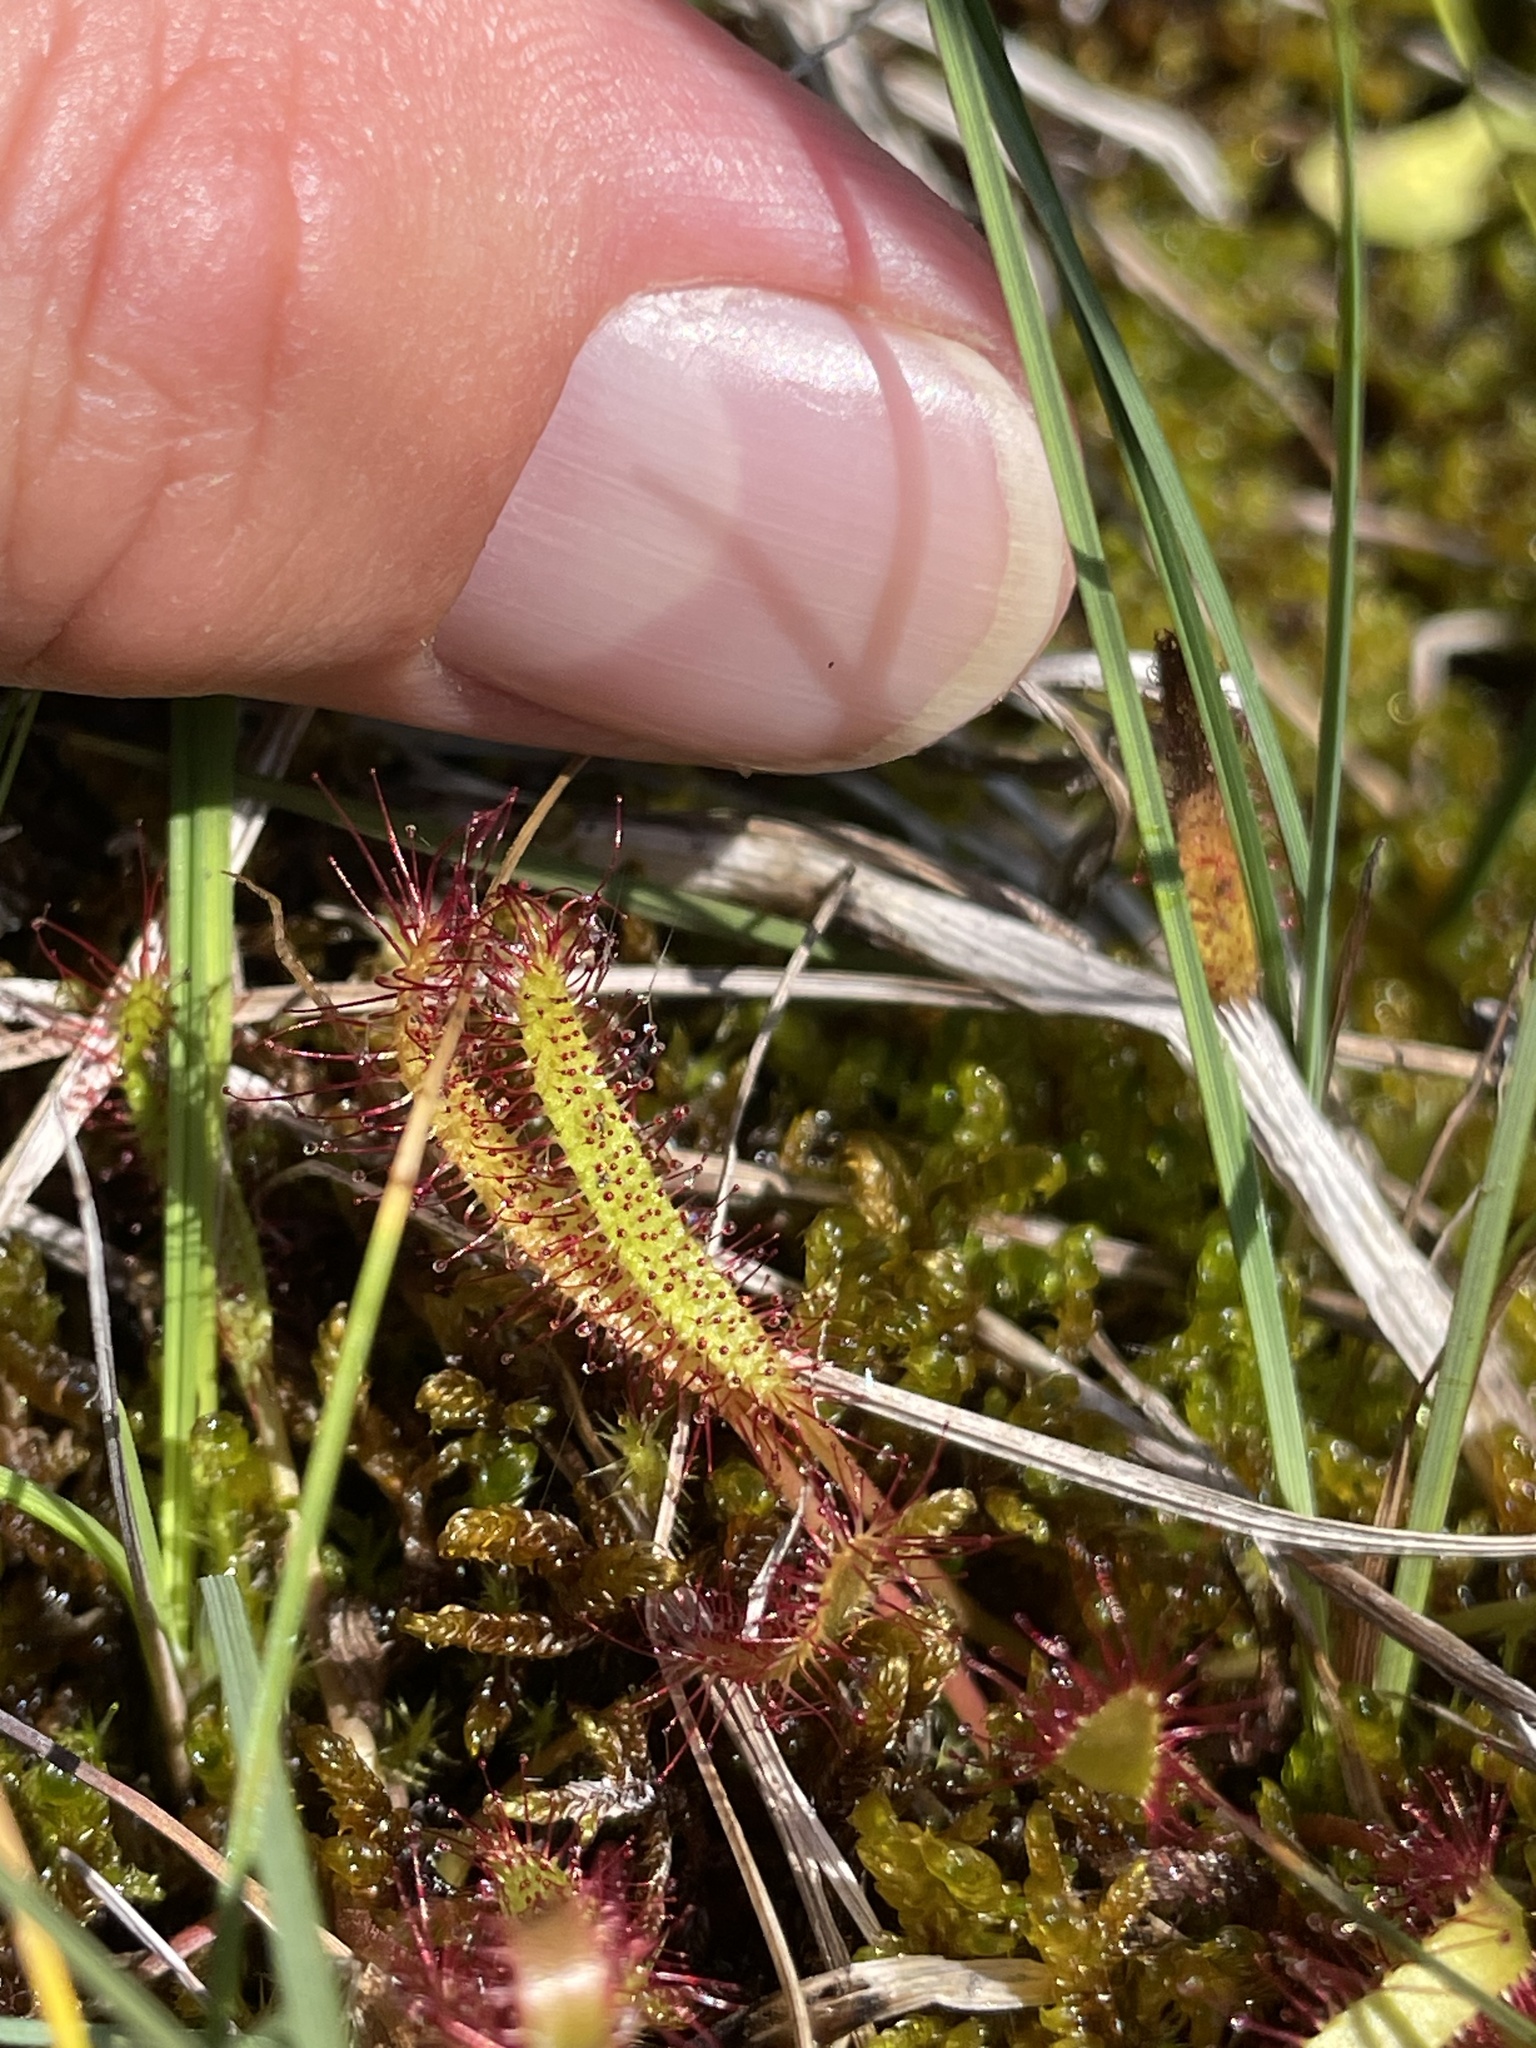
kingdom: Plantae
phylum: Tracheophyta
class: Magnoliopsida
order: Caryophyllales
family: Droseraceae
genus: Drosera
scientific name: Drosera linearis
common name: Linear-leaved sundew
